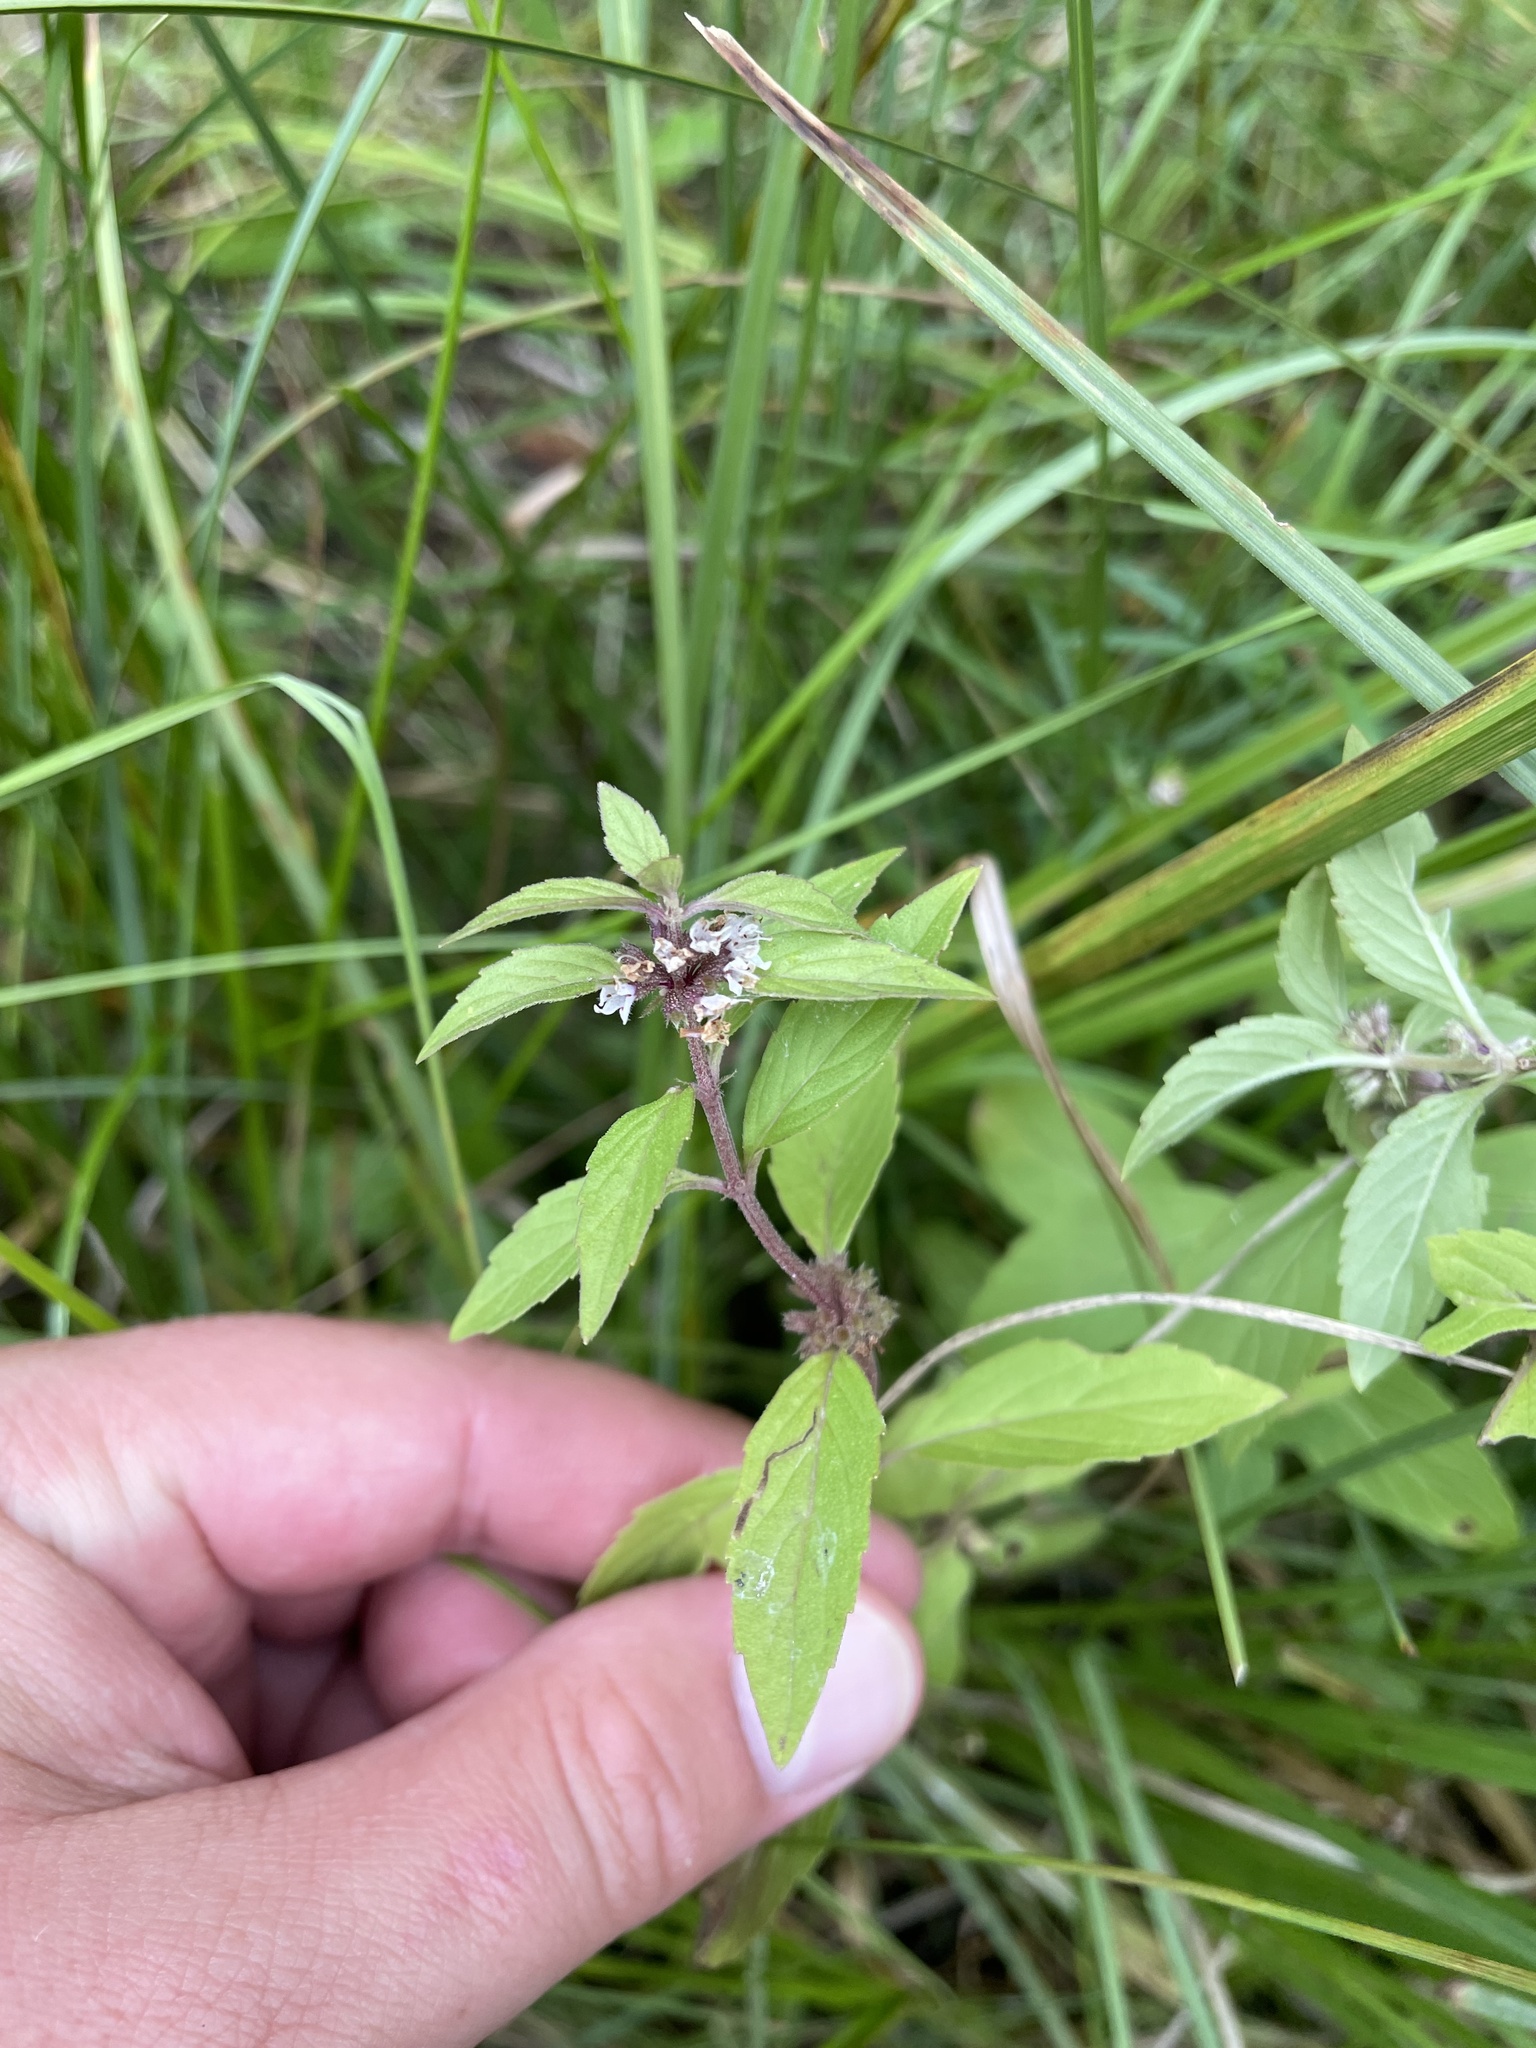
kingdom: Plantae
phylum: Tracheophyta
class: Magnoliopsida
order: Lamiales
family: Lamiaceae
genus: Mentha
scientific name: Mentha canadensis
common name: American corn mint
